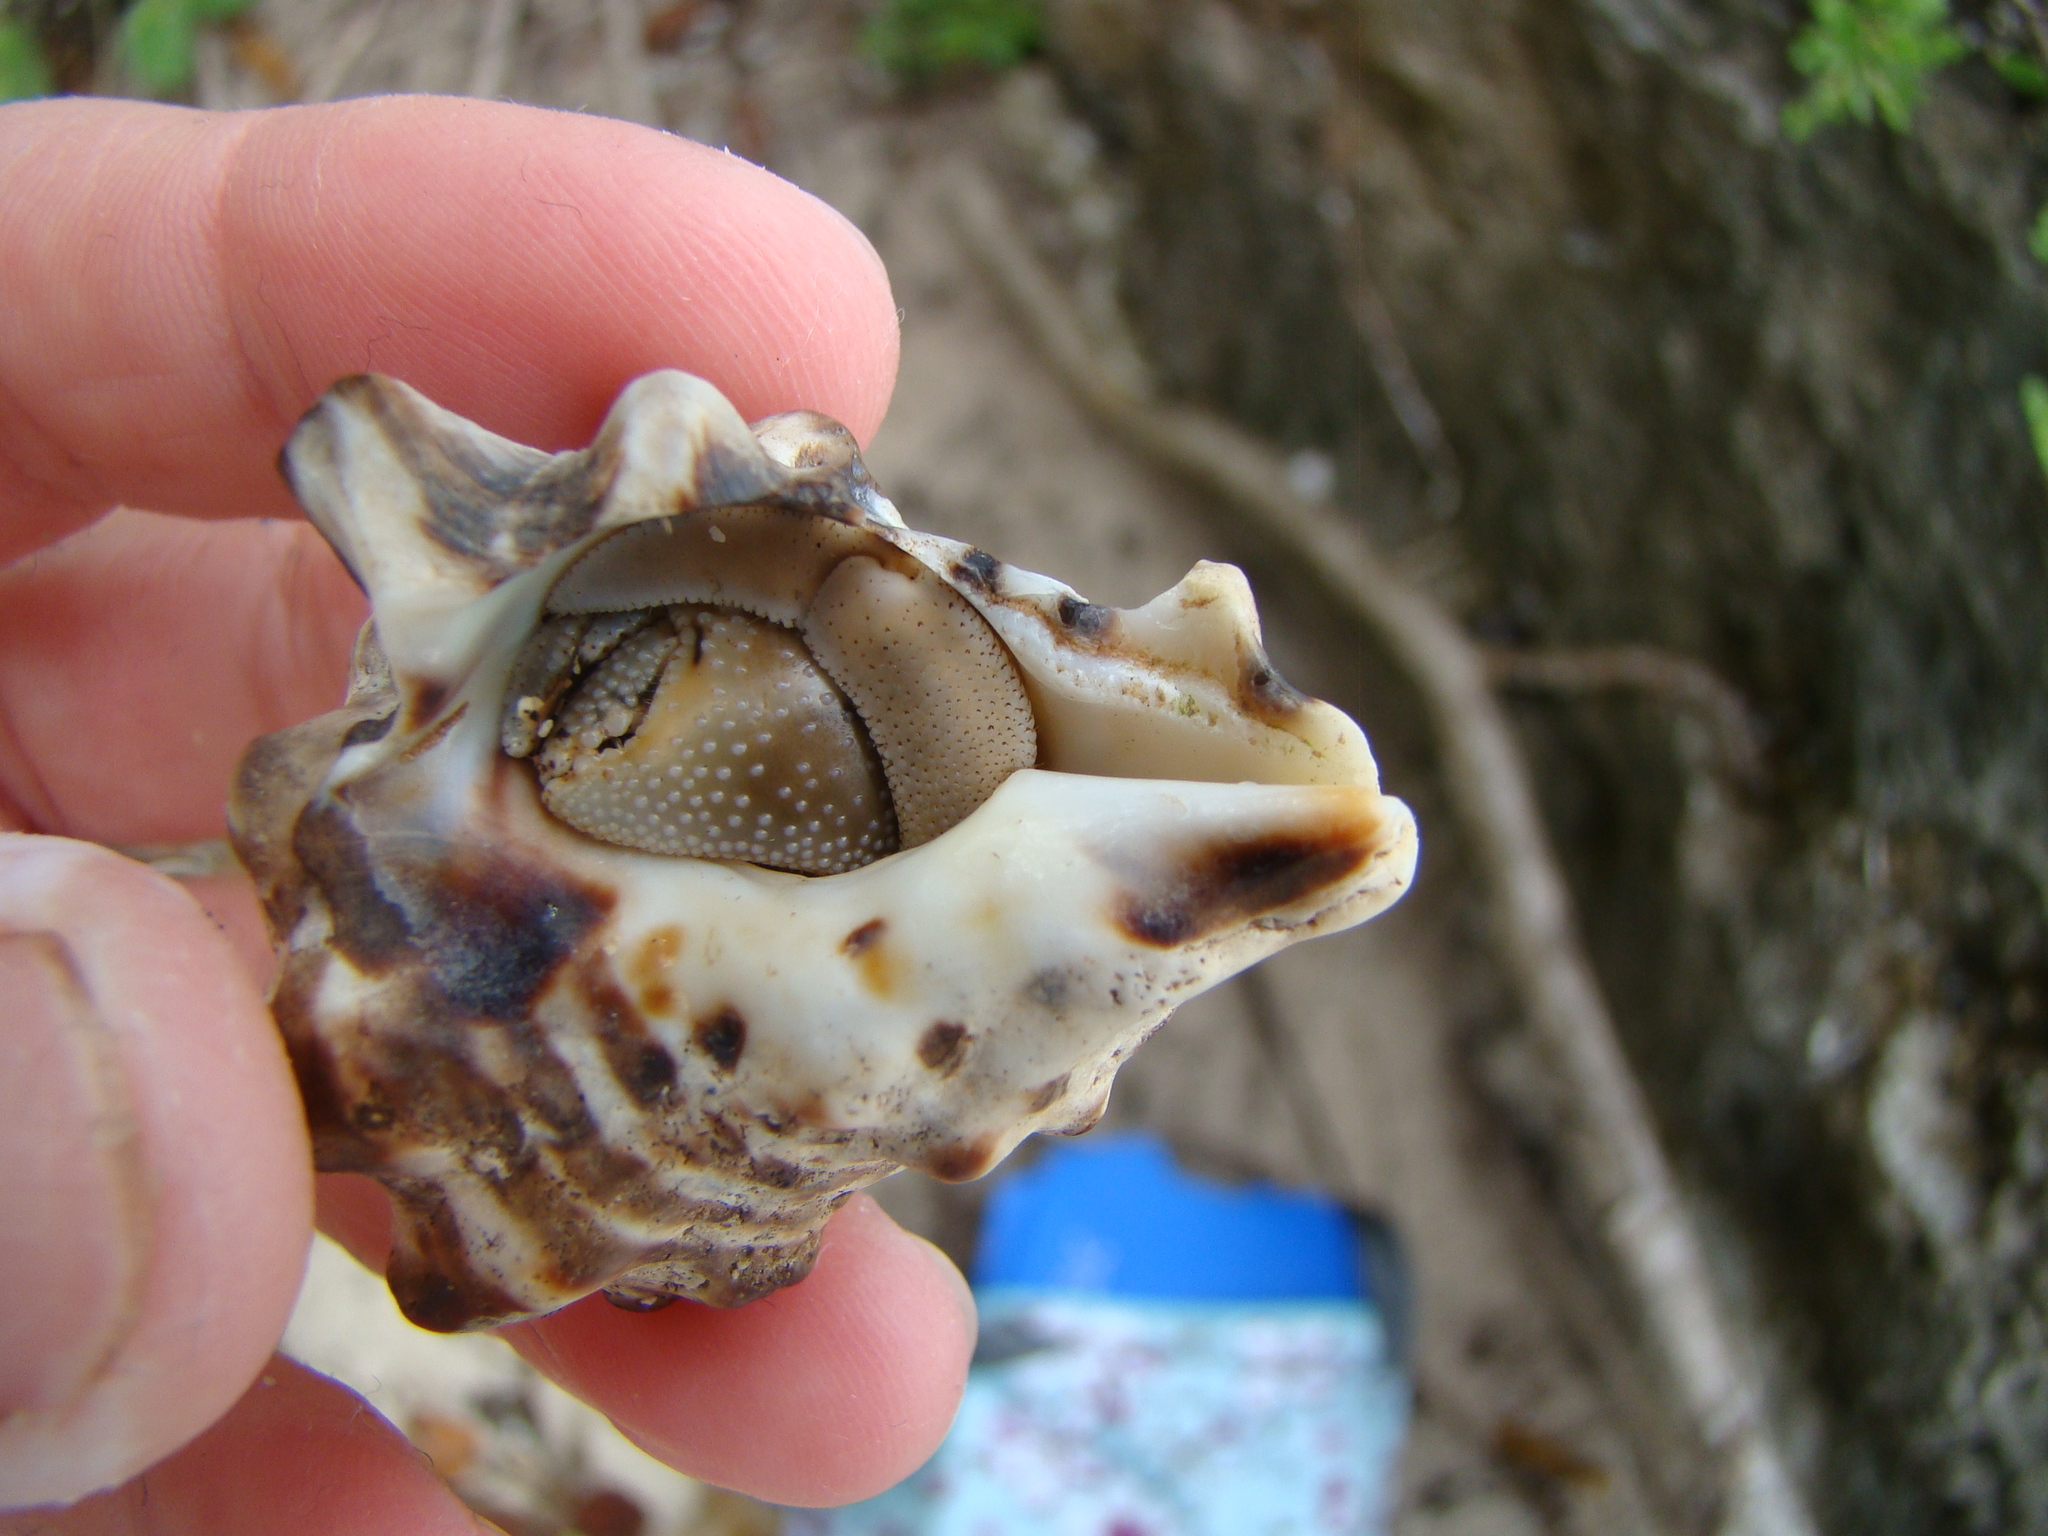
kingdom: Animalia
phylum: Mollusca
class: Gastropoda
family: Cerithiidae
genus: Pseudovertagus
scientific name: Pseudovertagus aluco
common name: Cuming's cerith
